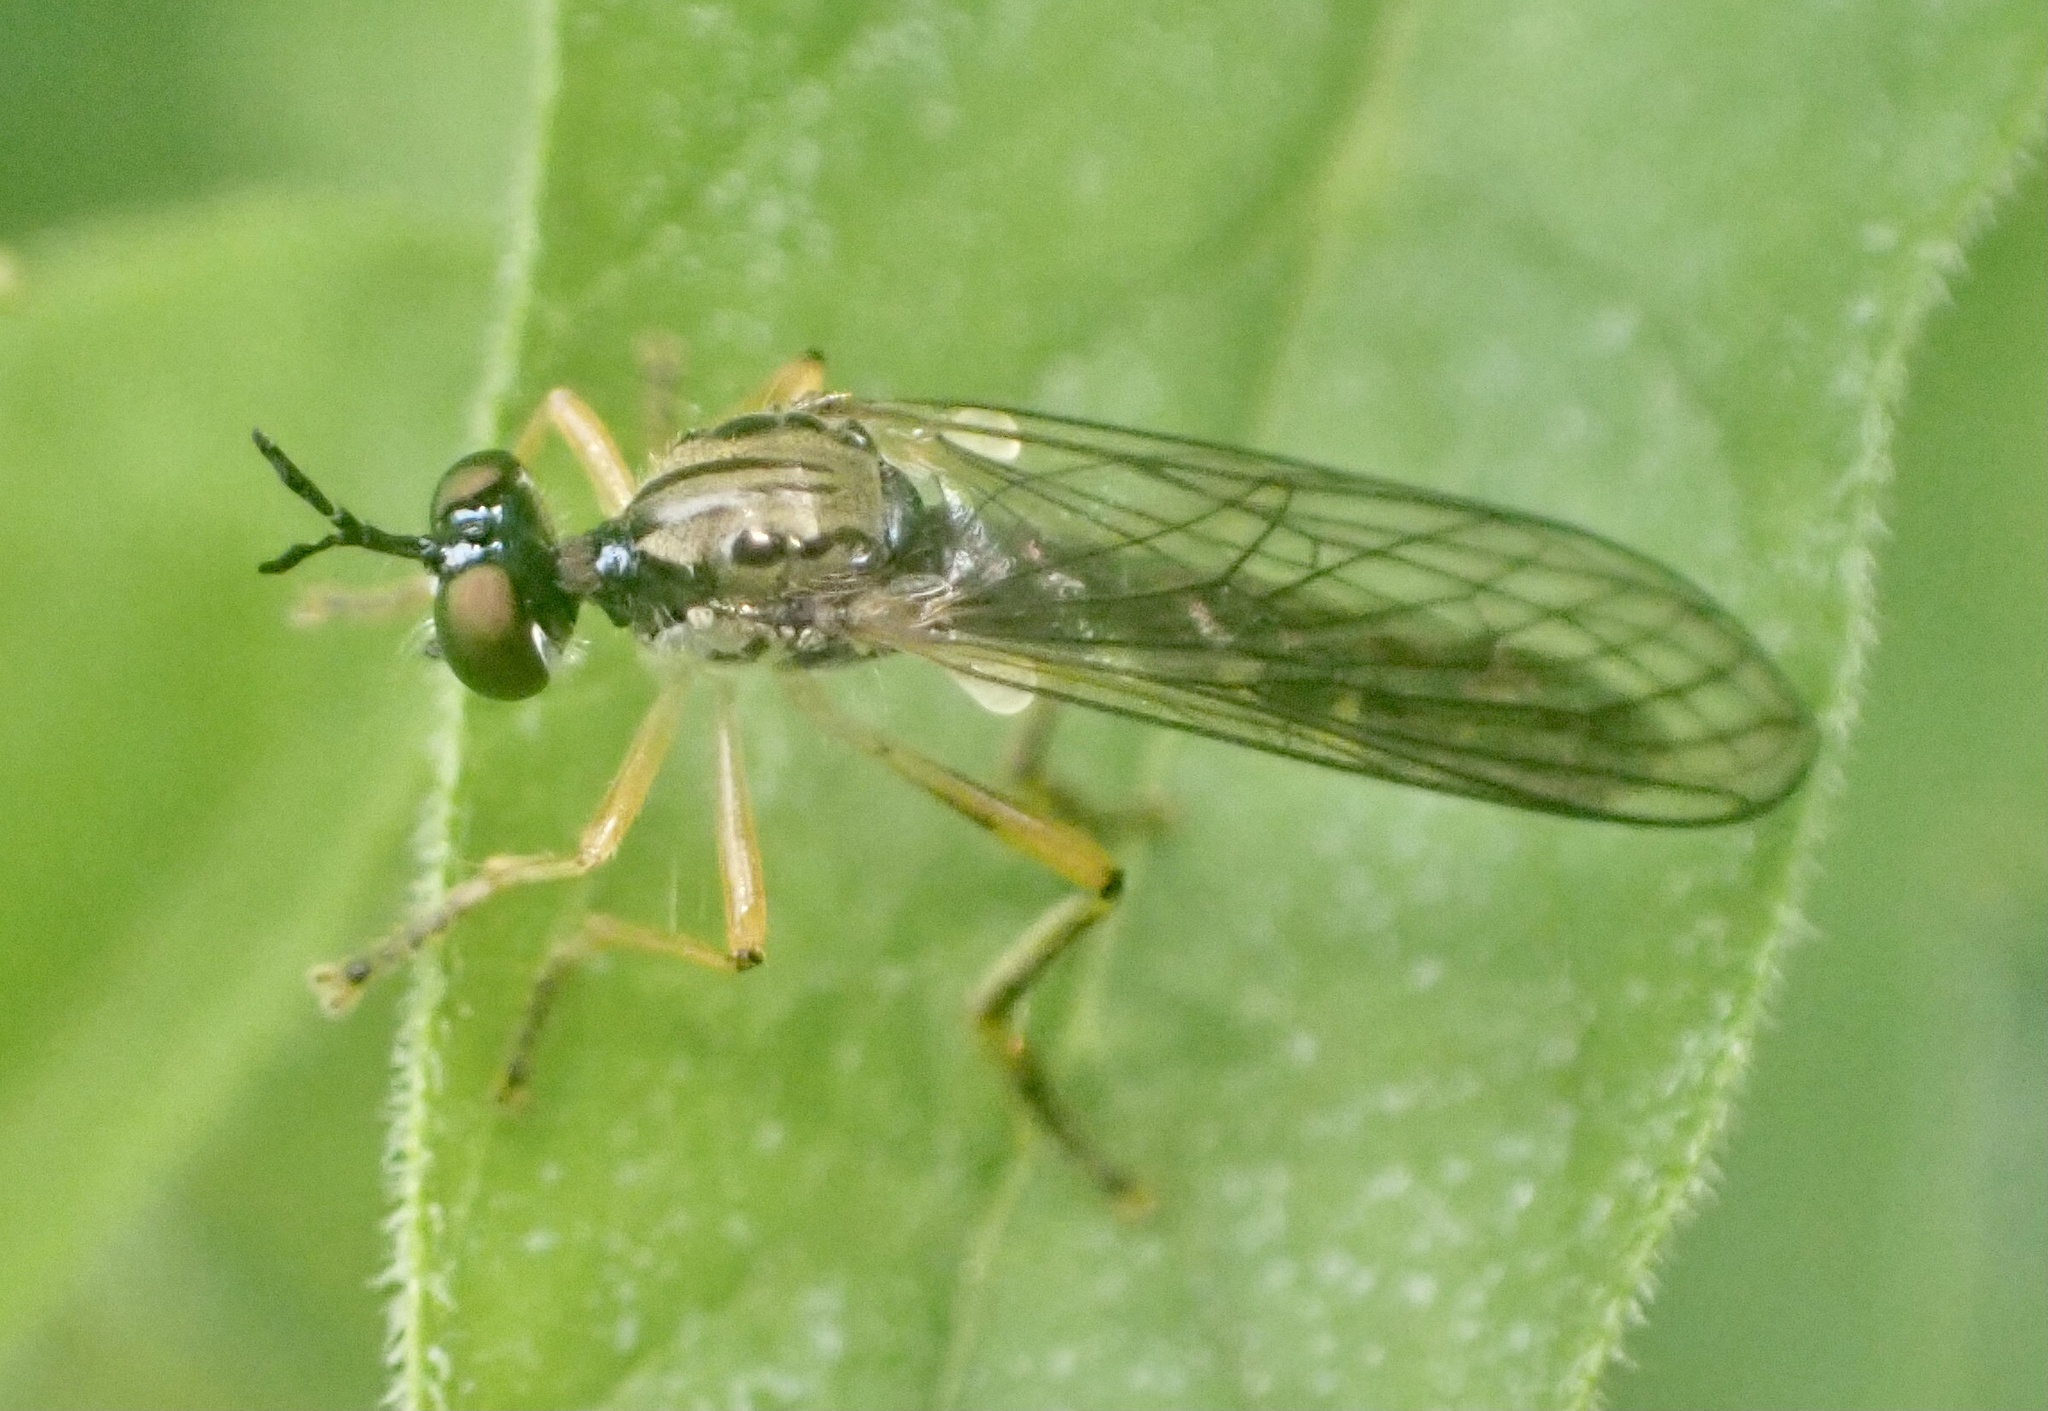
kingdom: Animalia
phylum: Arthropoda
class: Insecta
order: Diptera
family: Asilidae
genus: Dioctria
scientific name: Dioctria linearis
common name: Small yellow-legged robberfly
